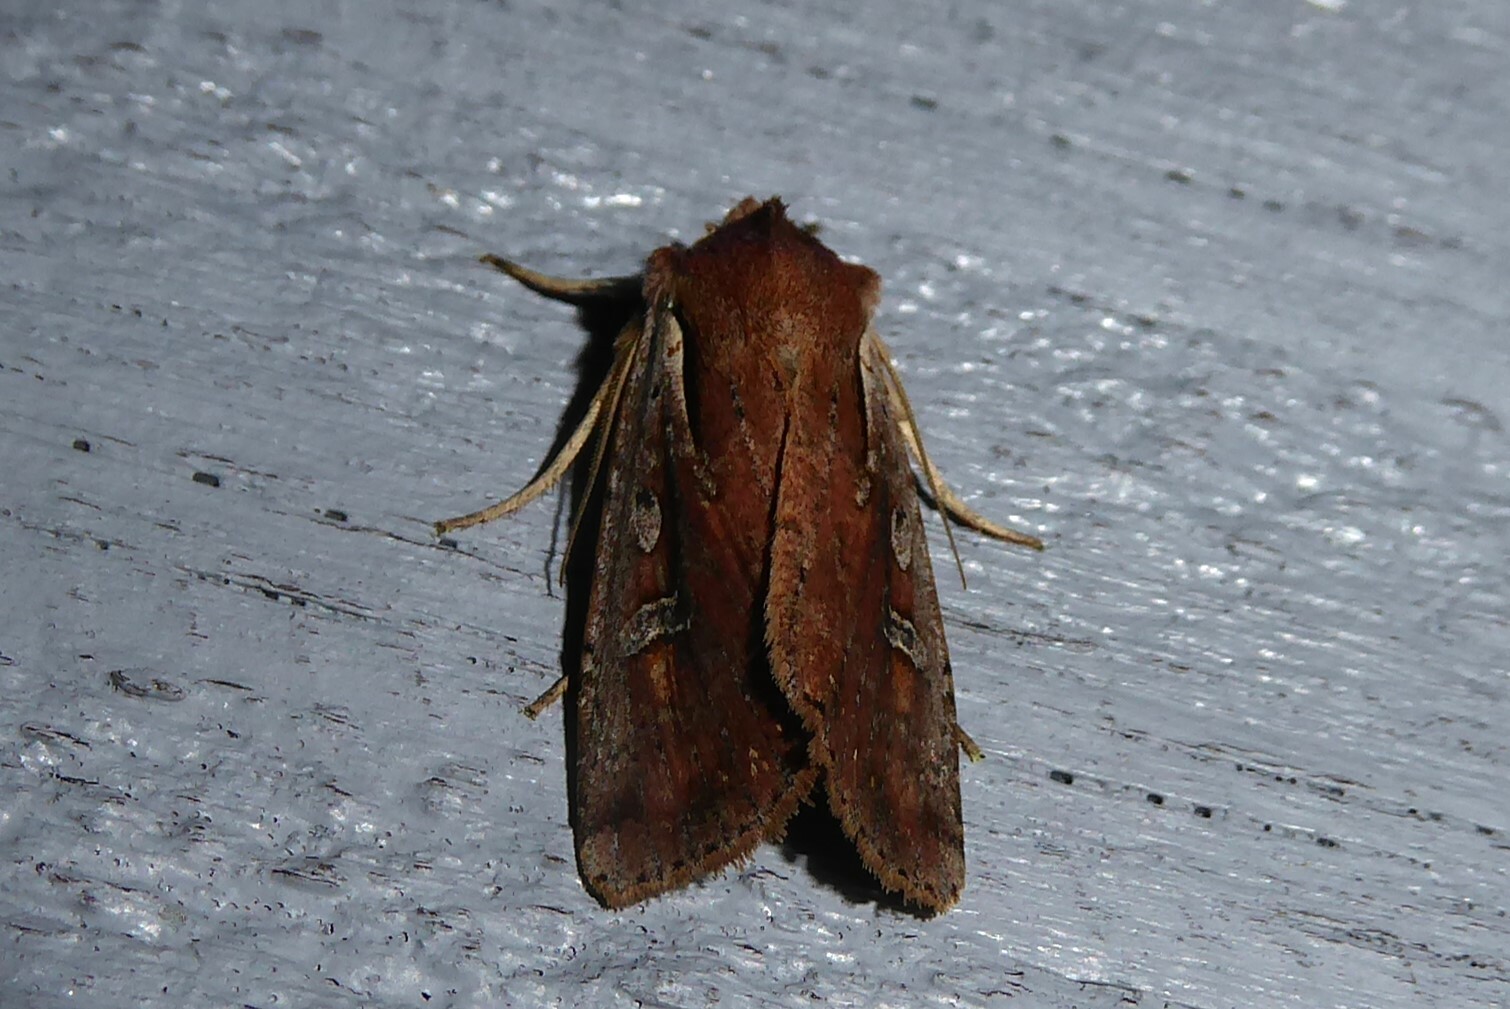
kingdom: Animalia
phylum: Arthropoda
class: Insecta
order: Lepidoptera
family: Noctuidae
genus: Ichneutica
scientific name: Ichneutica atristriga
